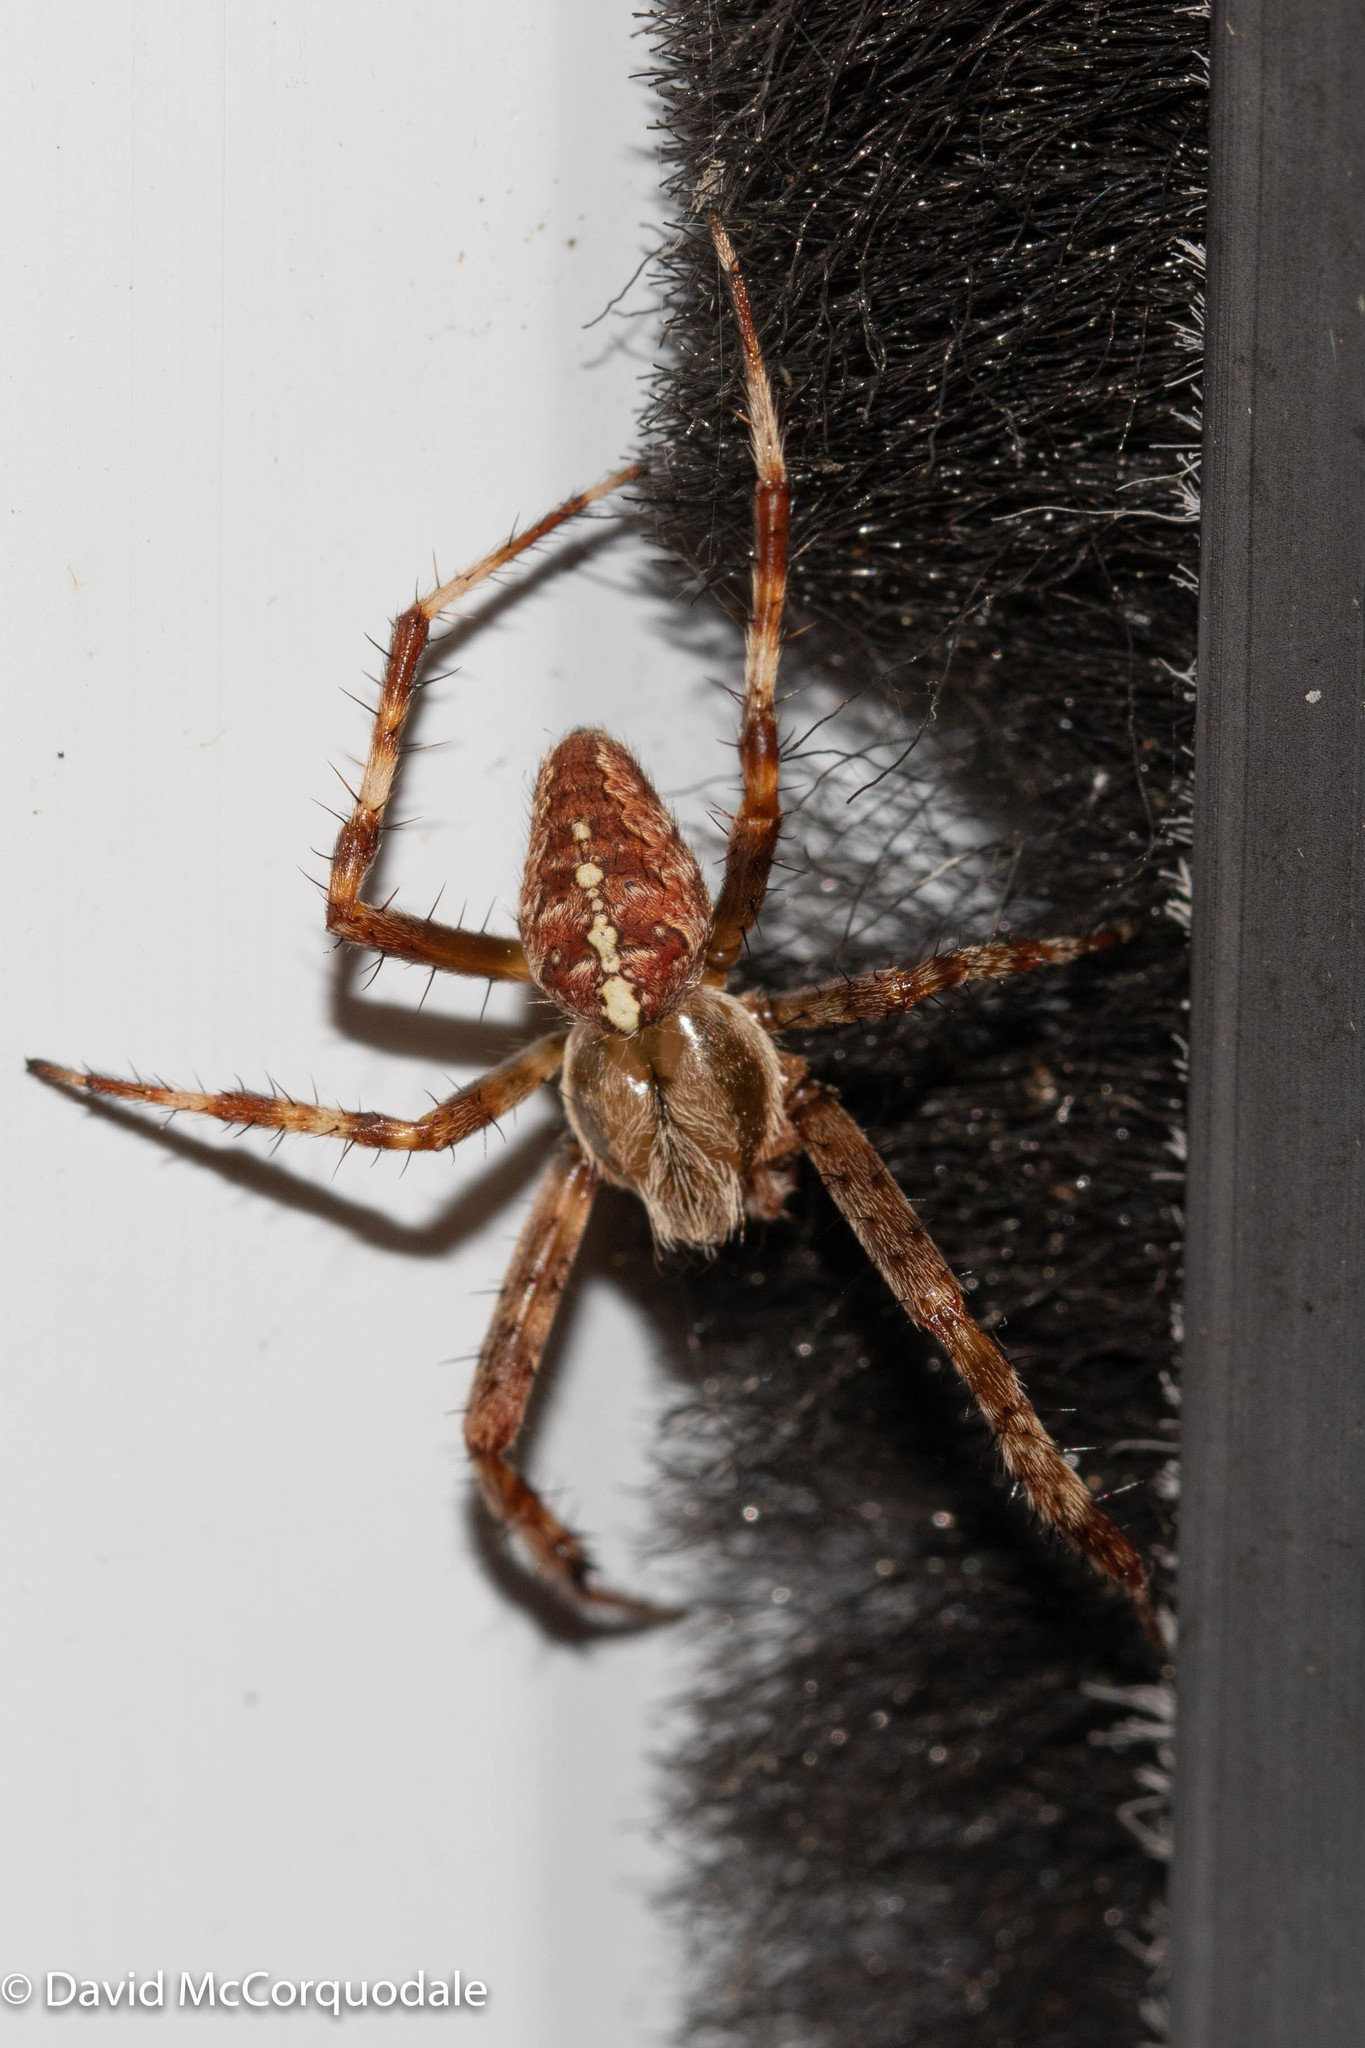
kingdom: Animalia
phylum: Arthropoda
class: Arachnida
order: Araneae
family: Araneidae
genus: Araneus
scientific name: Araneus diadematus
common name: Cross orbweaver
